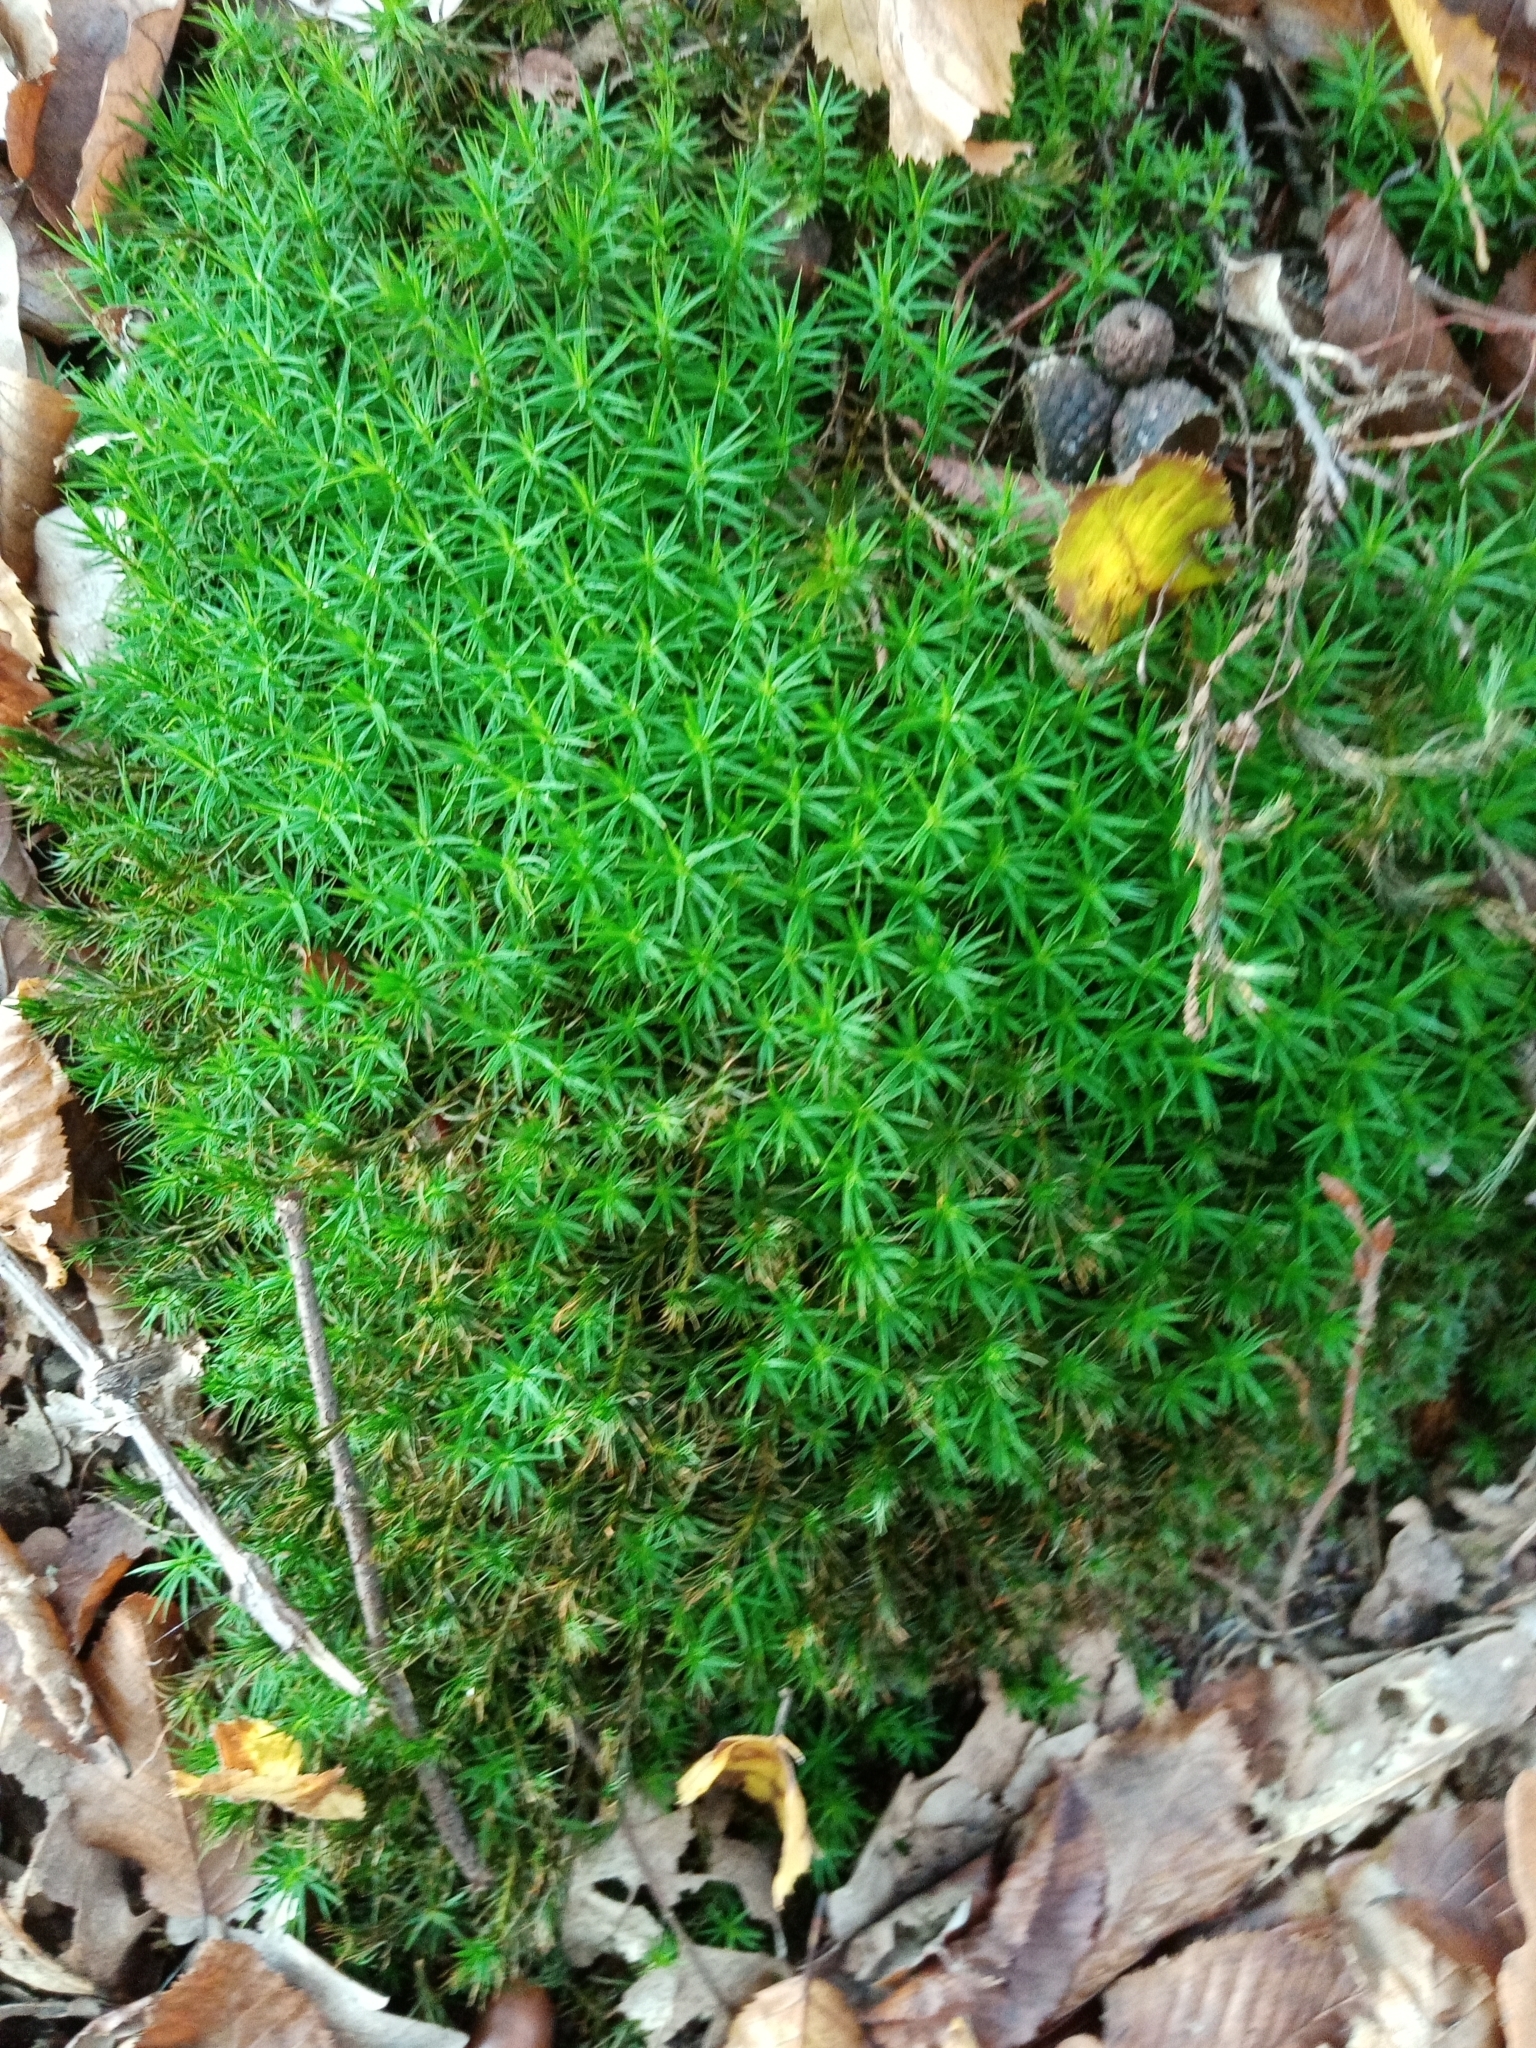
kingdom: Plantae
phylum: Bryophyta
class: Polytrichopsida
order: Polytrichales
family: Polytrichaceae
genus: Polytrichum
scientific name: Polytrichum formosum
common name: Bank haircap moss
